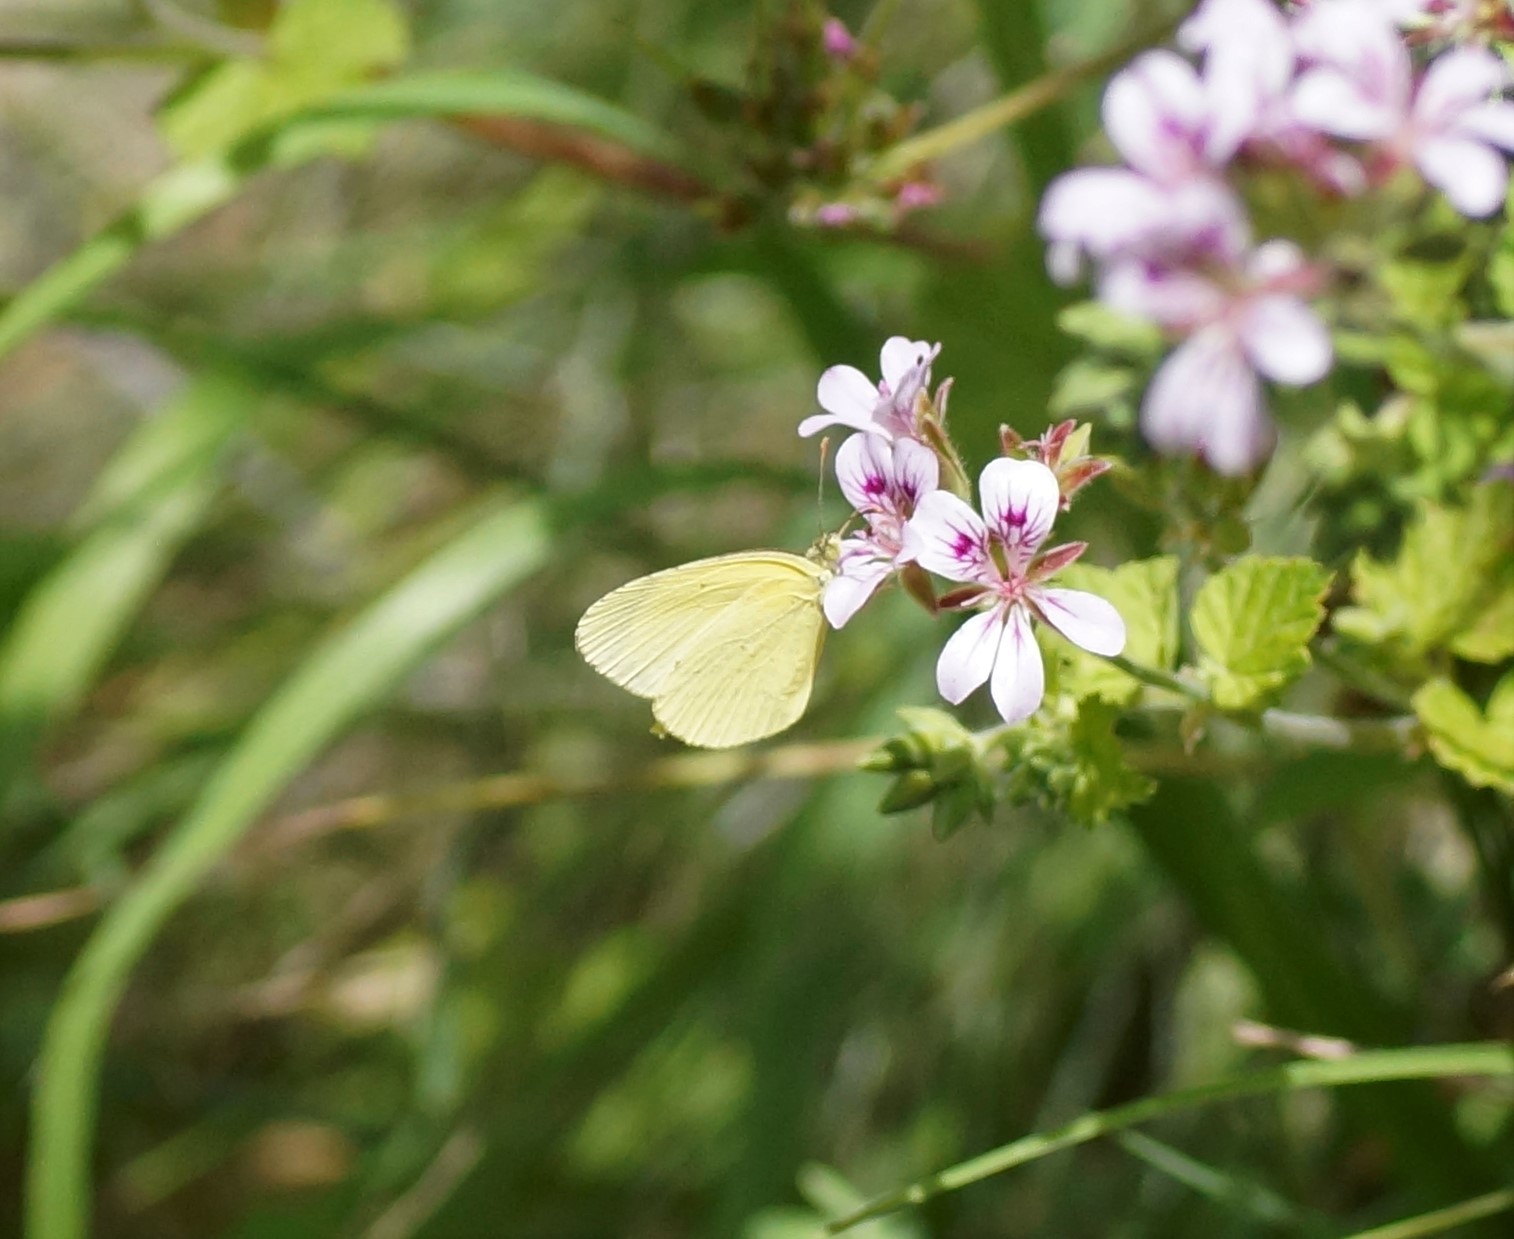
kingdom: Animalia
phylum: Arthropoda
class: Insecta
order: Lepidoptera
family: Pieridae
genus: Eurema
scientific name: Eurema smilax
